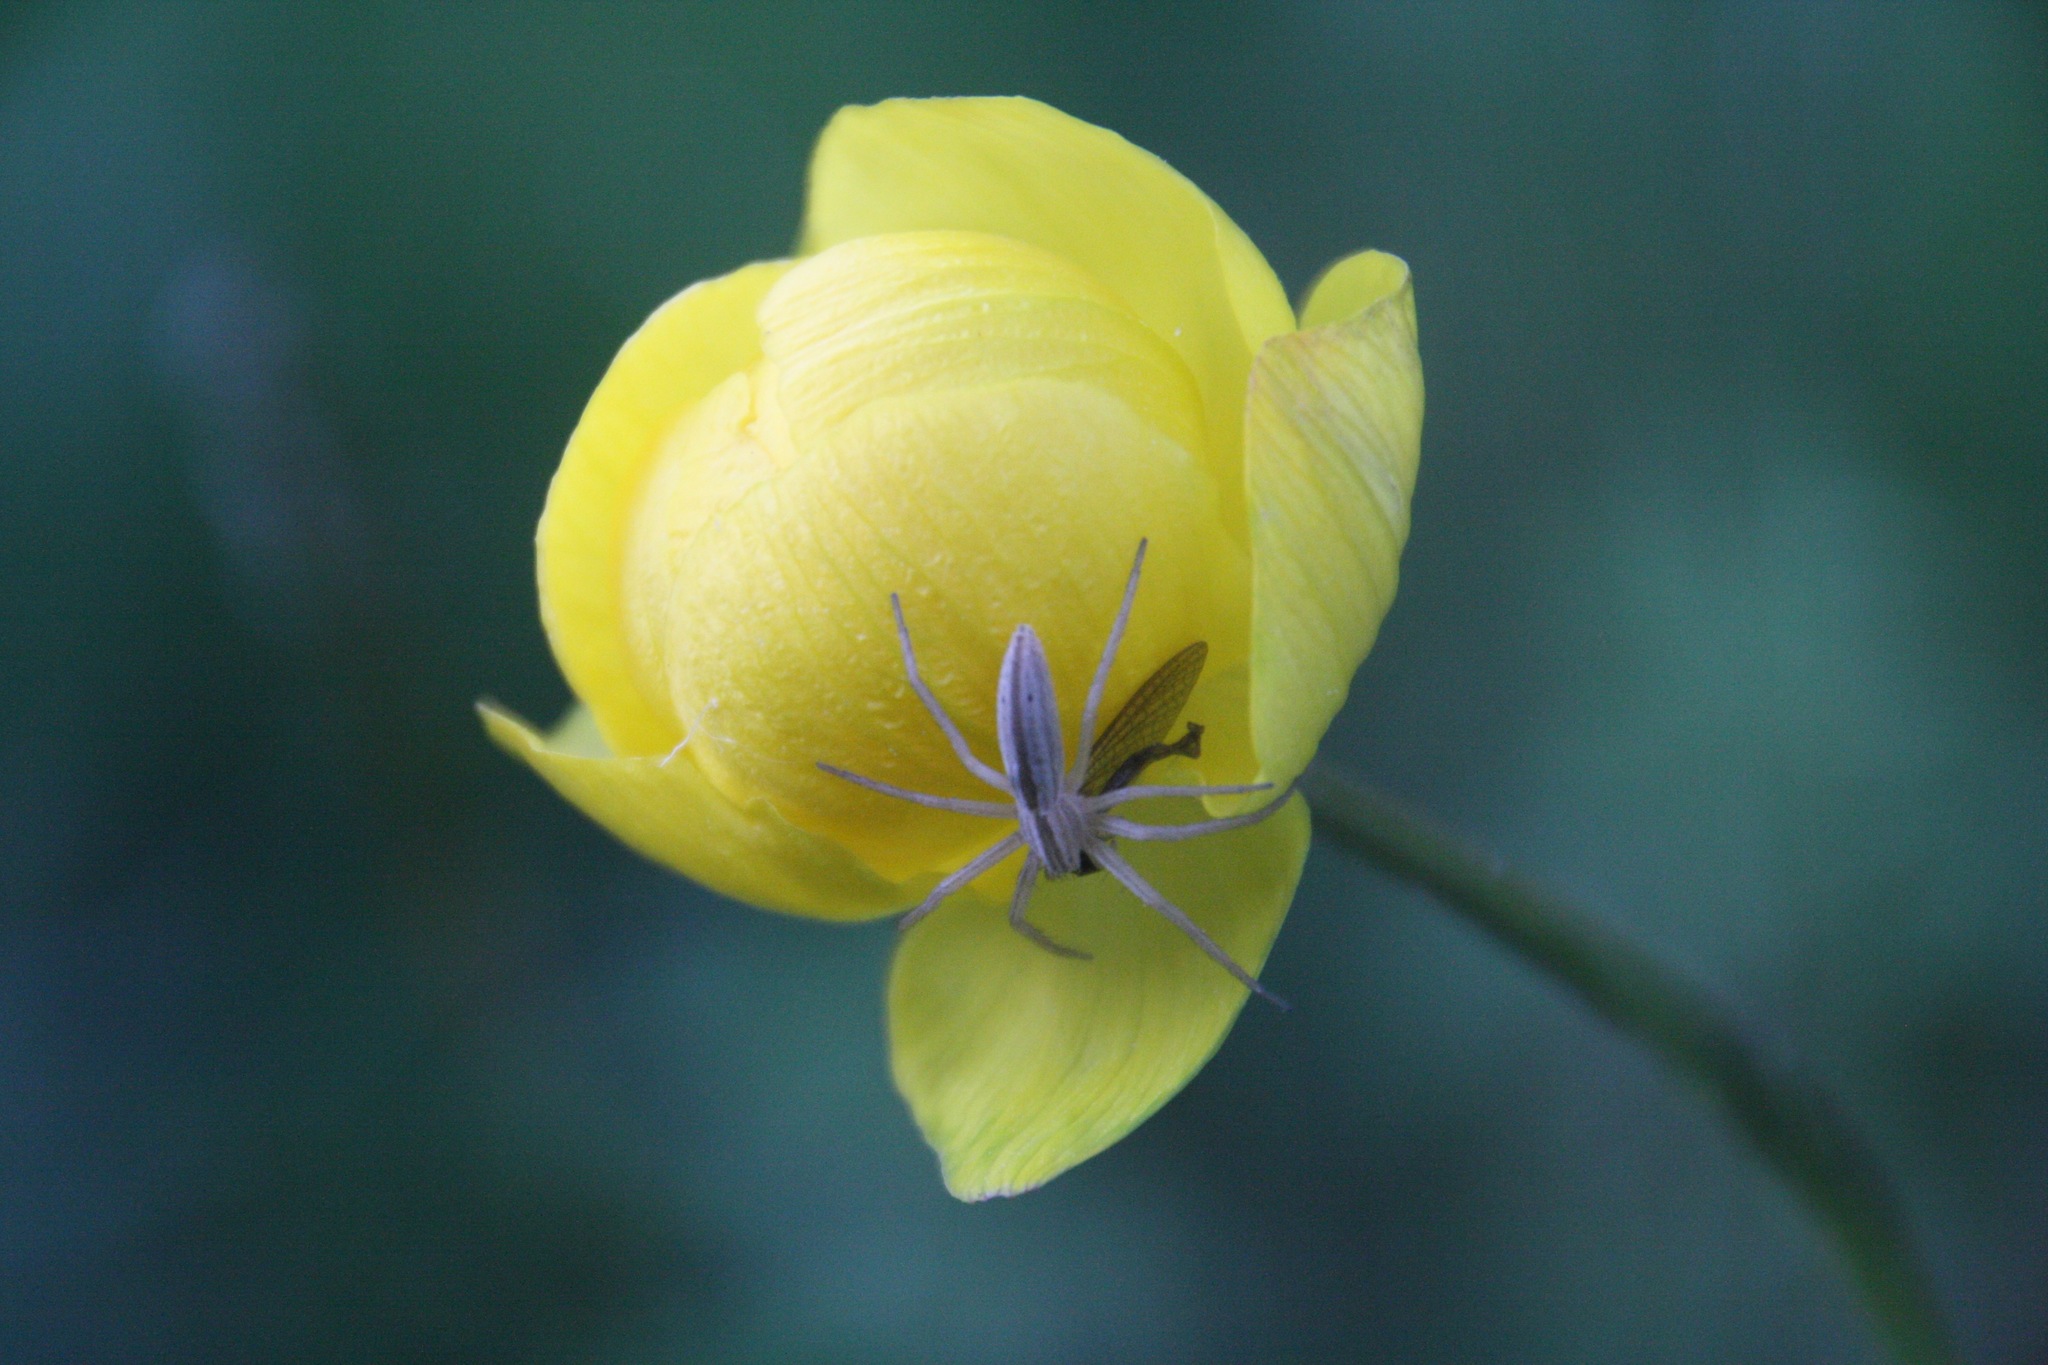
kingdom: Animalia
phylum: Arthropoda
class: Arachnida
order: Araneae
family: Philodromidae
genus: Tibellus
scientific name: Tibellus oblongus
